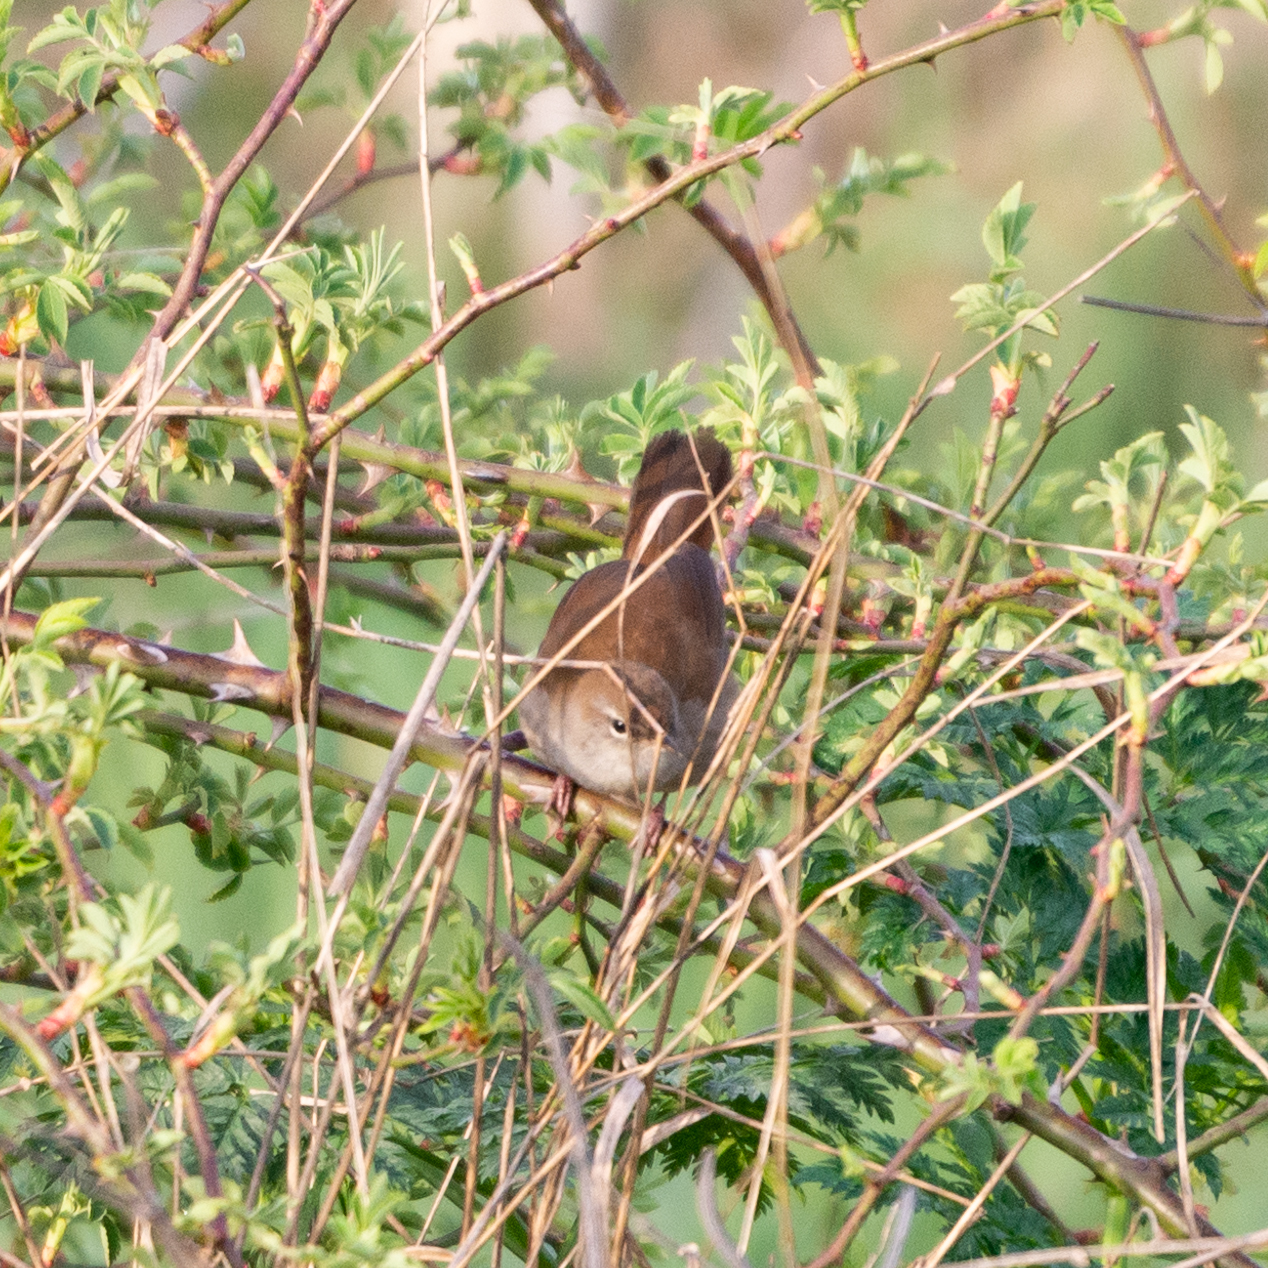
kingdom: Animalia
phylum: Chordata
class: Aves
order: Passeriformes
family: Cettiidae
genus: Cettia
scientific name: Cettia cetti
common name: Cetti's warbler
